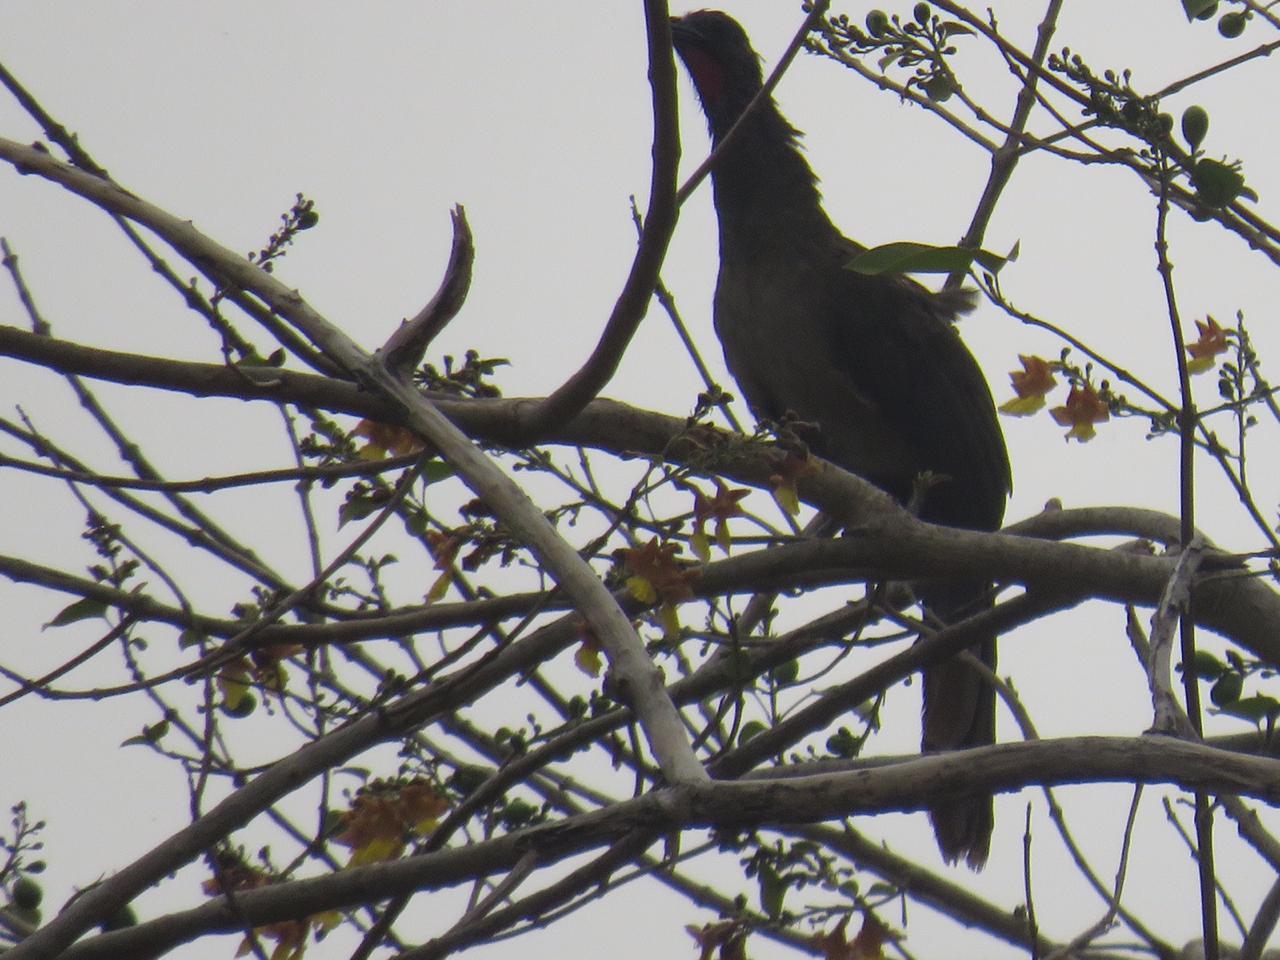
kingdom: Animalia
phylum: Chordata
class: Aves
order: Galliformes
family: Cracidae
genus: Ortalis
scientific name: Ortalis ruficauda
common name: Rufous-vented chachalaca
